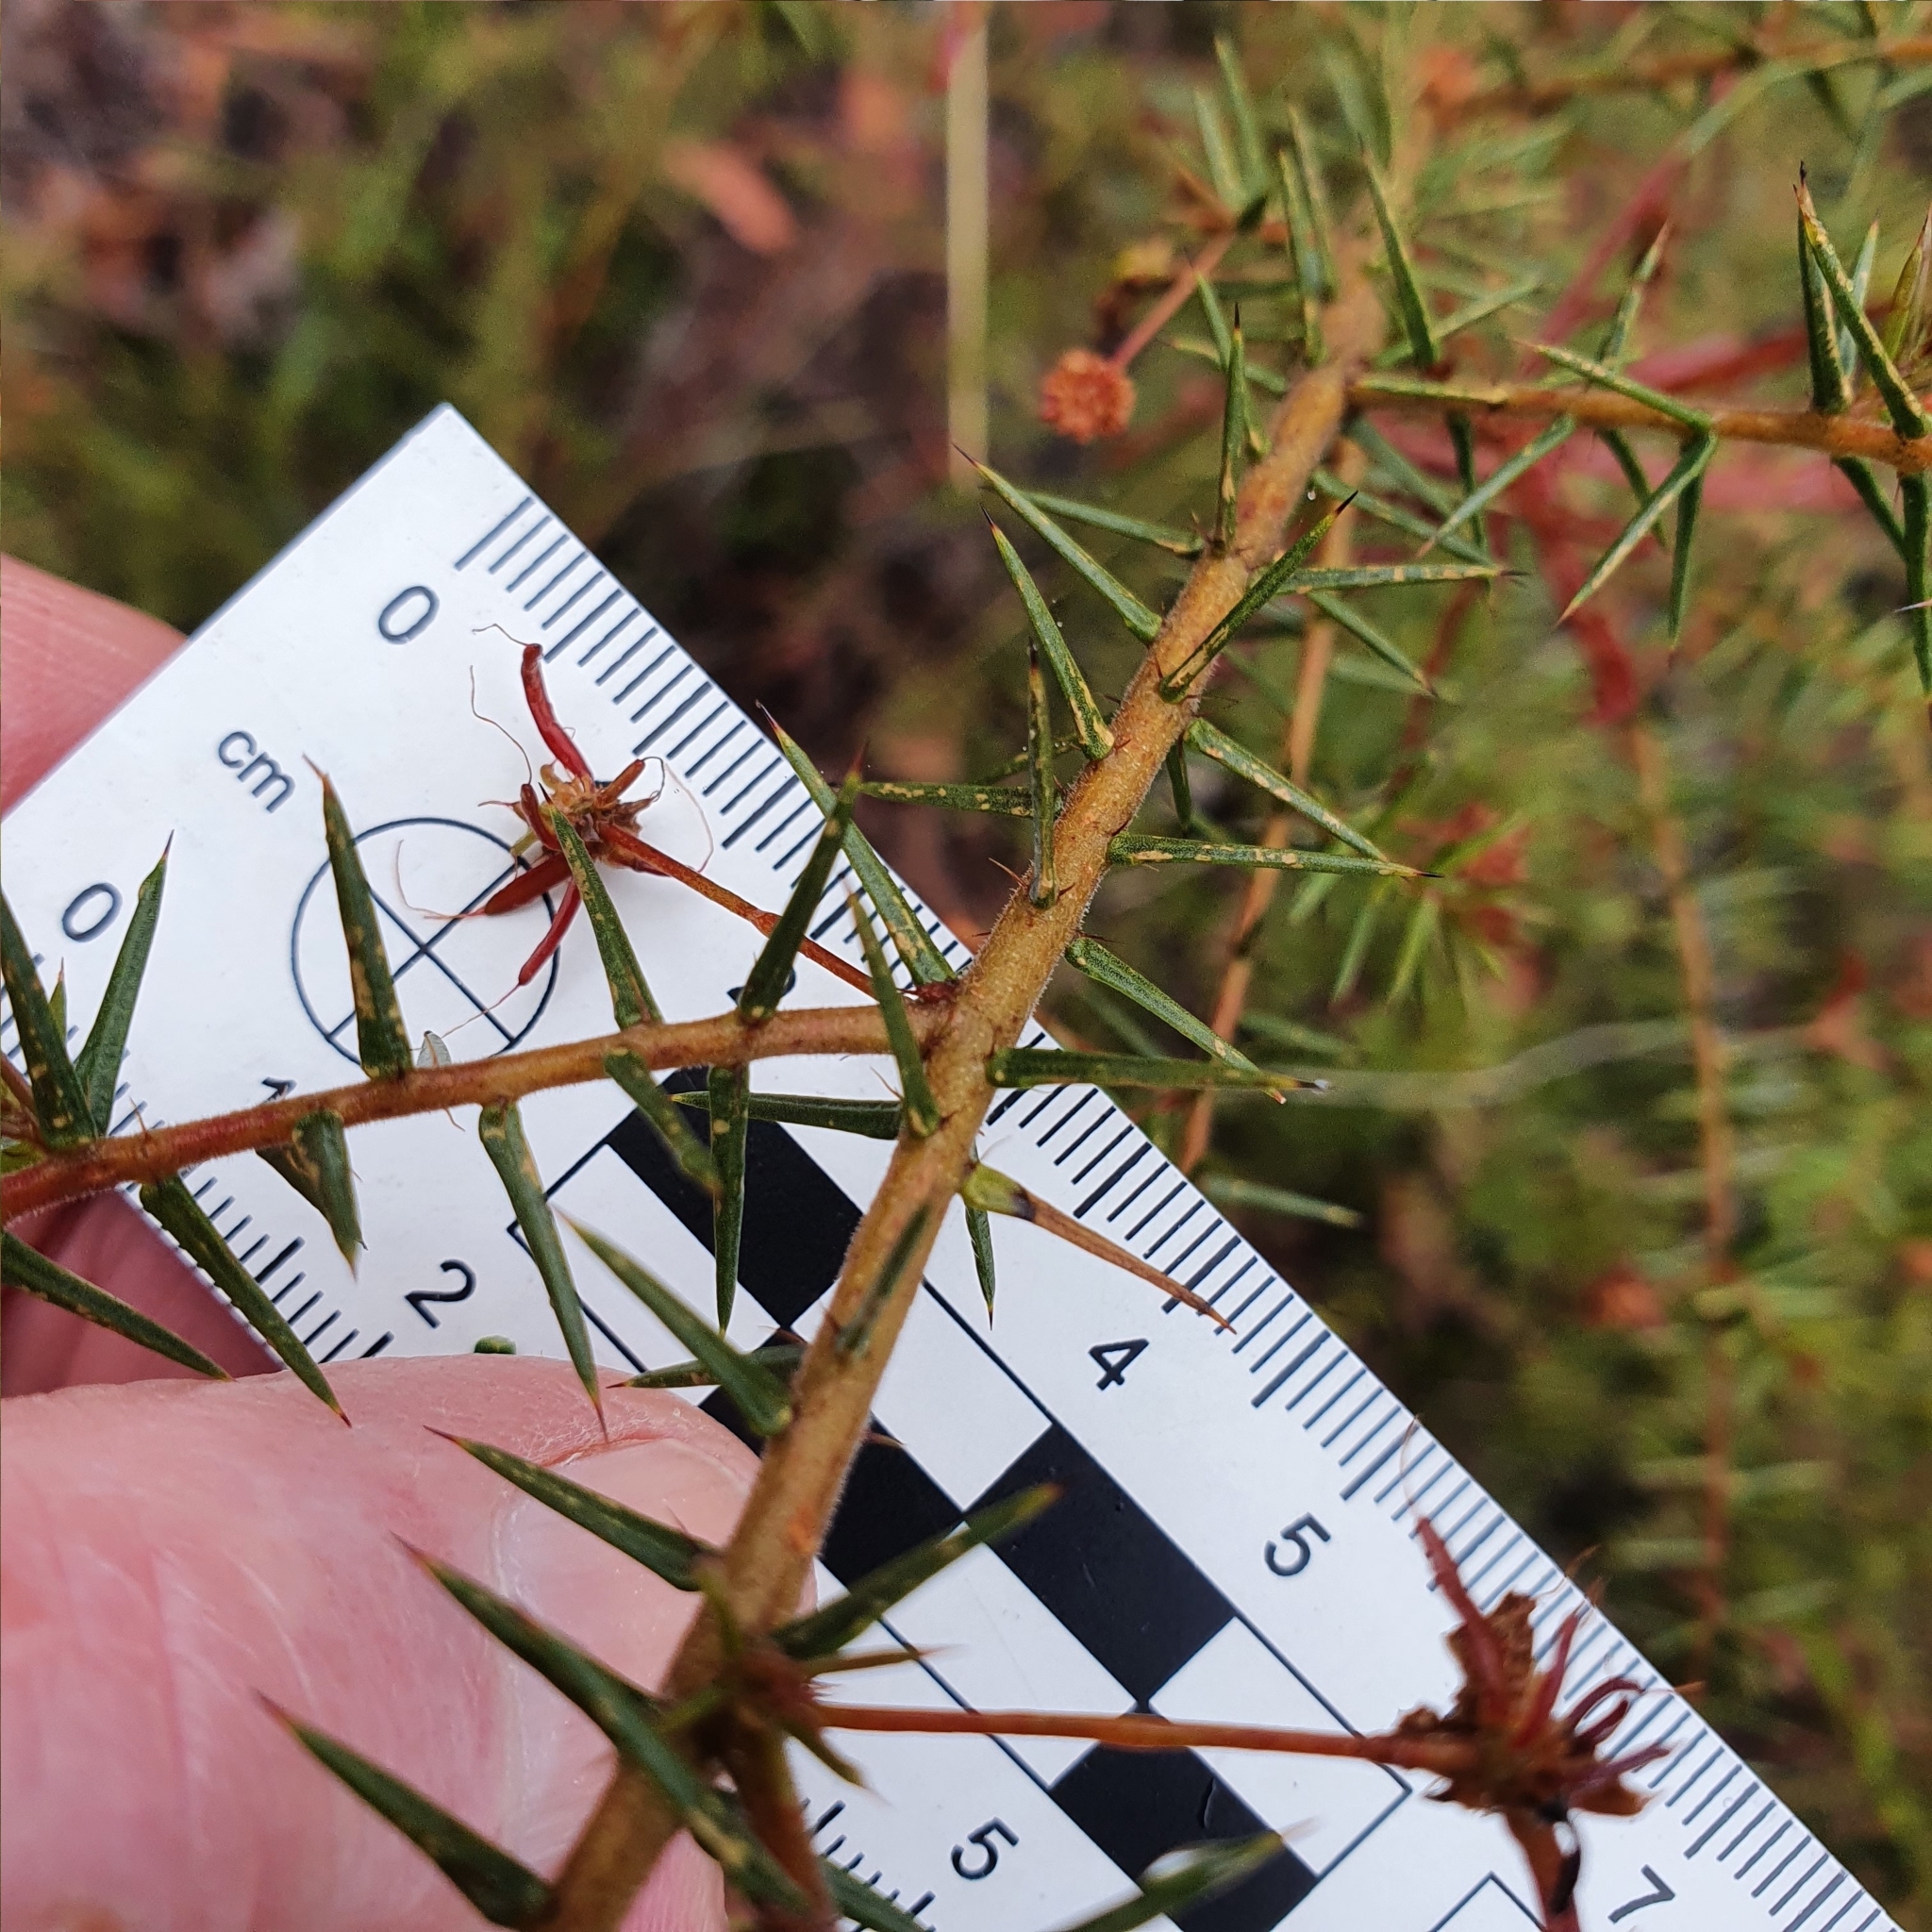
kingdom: Plantae
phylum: Tracheophyta
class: Magnoliopsida
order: Fabales
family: Fabaceae
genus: Acacia
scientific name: Acacia ulicifolia
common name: Juniper wattle
